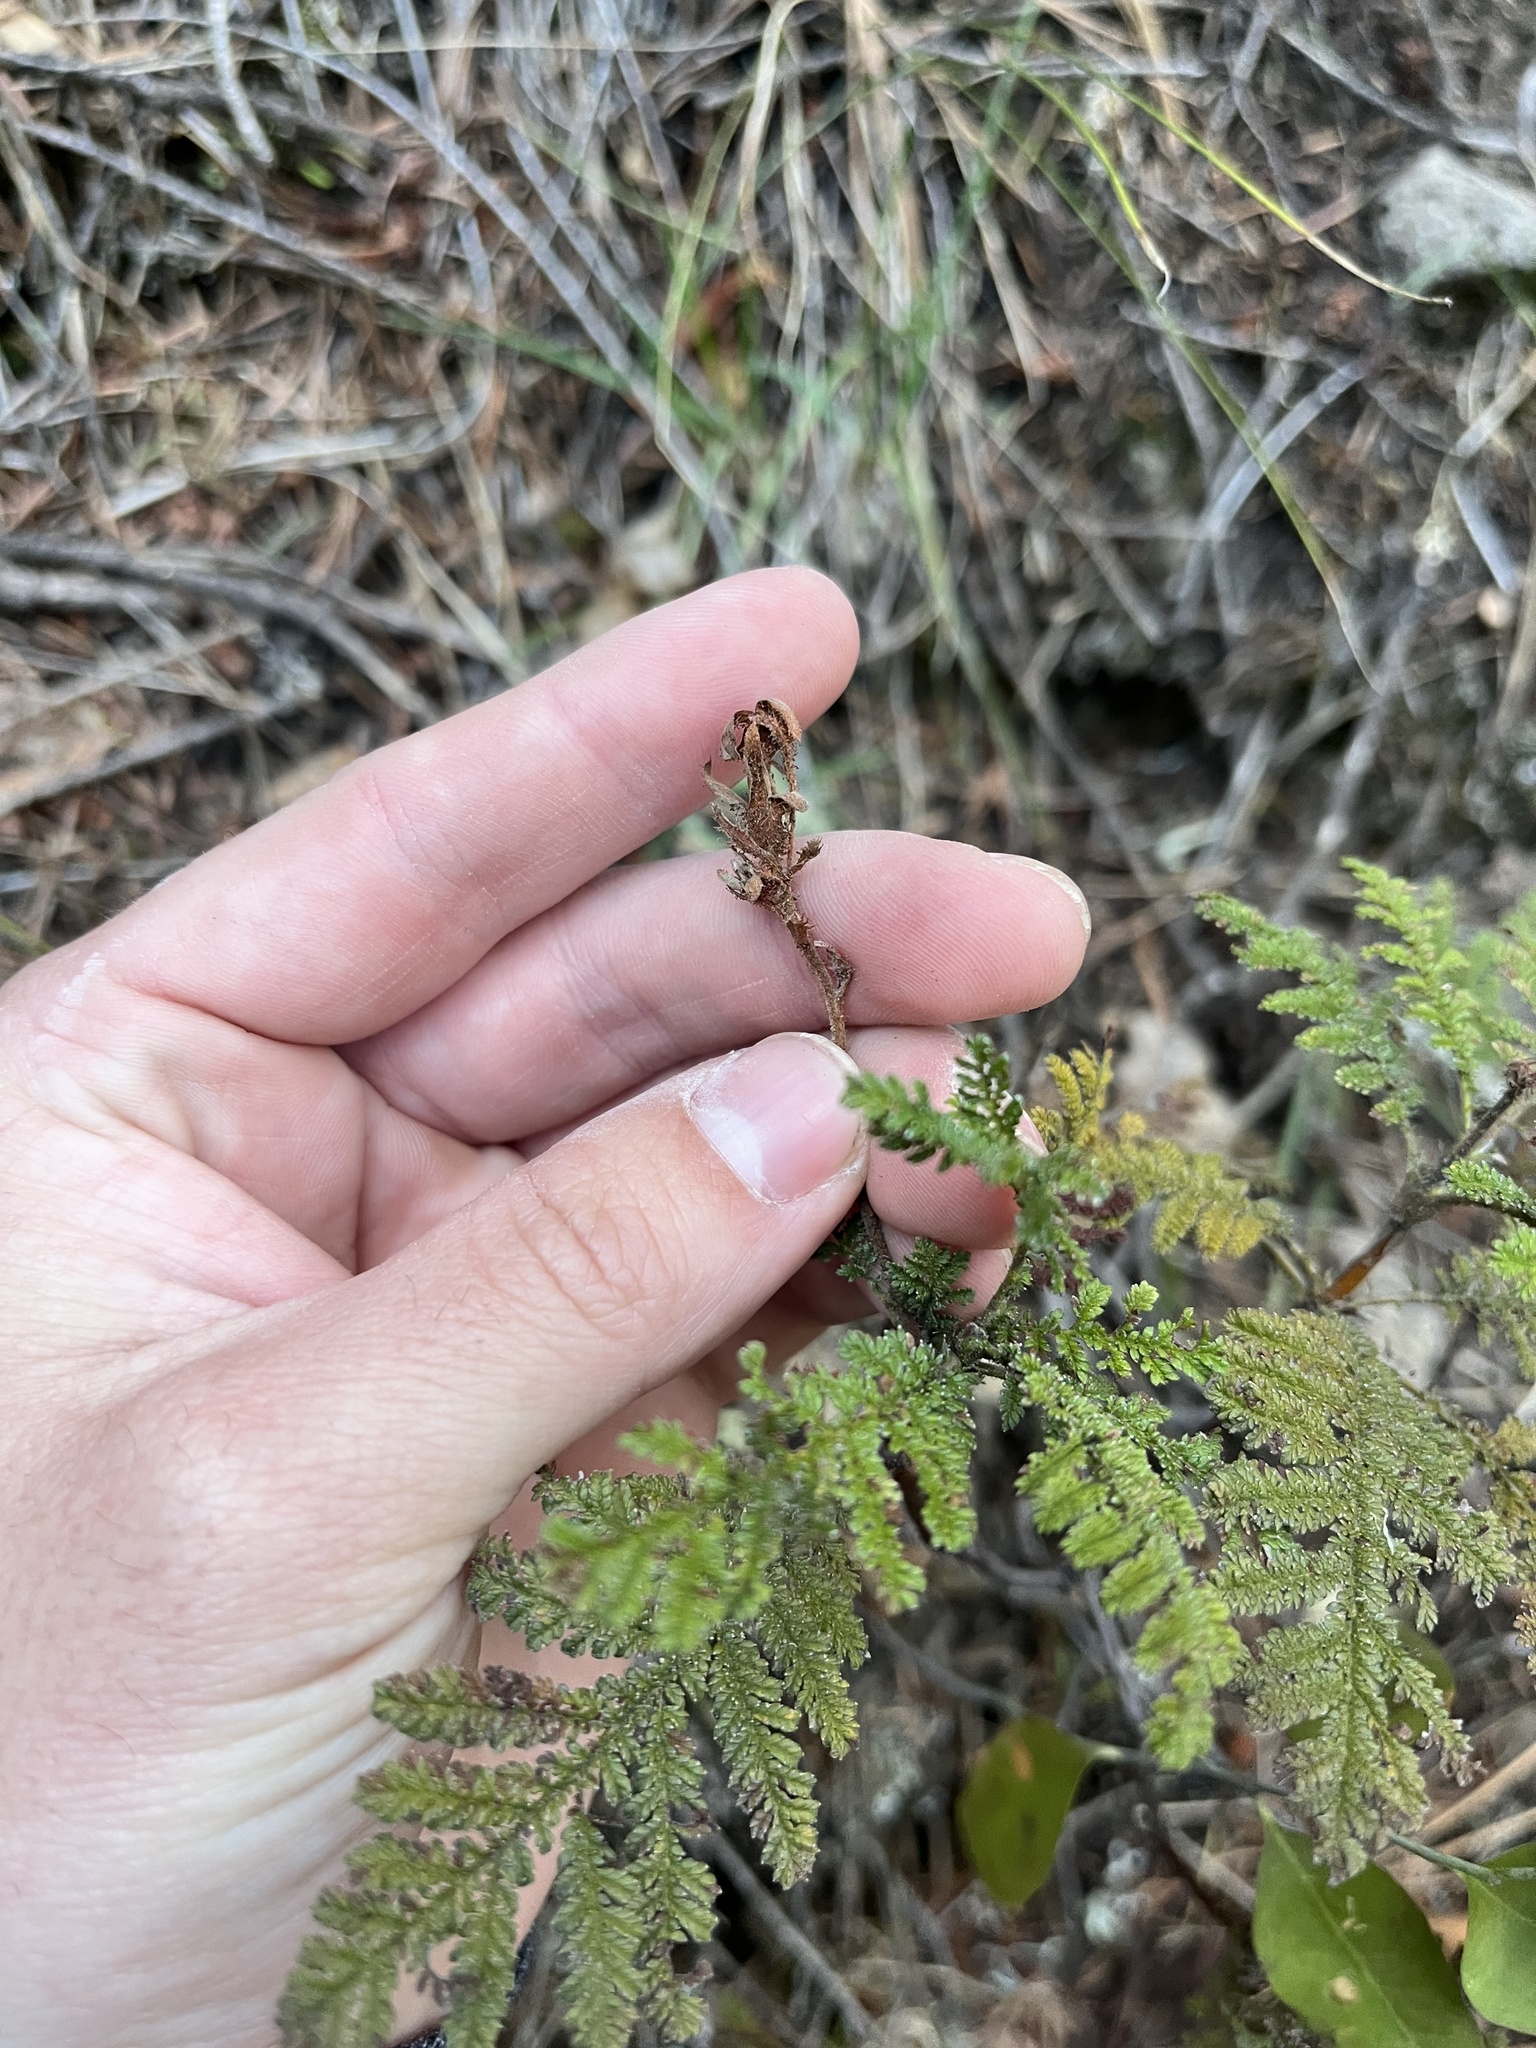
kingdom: Plantae
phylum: Tracheophyta
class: Magnoliopsida
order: Rosales
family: Rosaceae
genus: Chamaebatia
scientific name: Chamaebatia foliolosa
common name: Mountain misery
